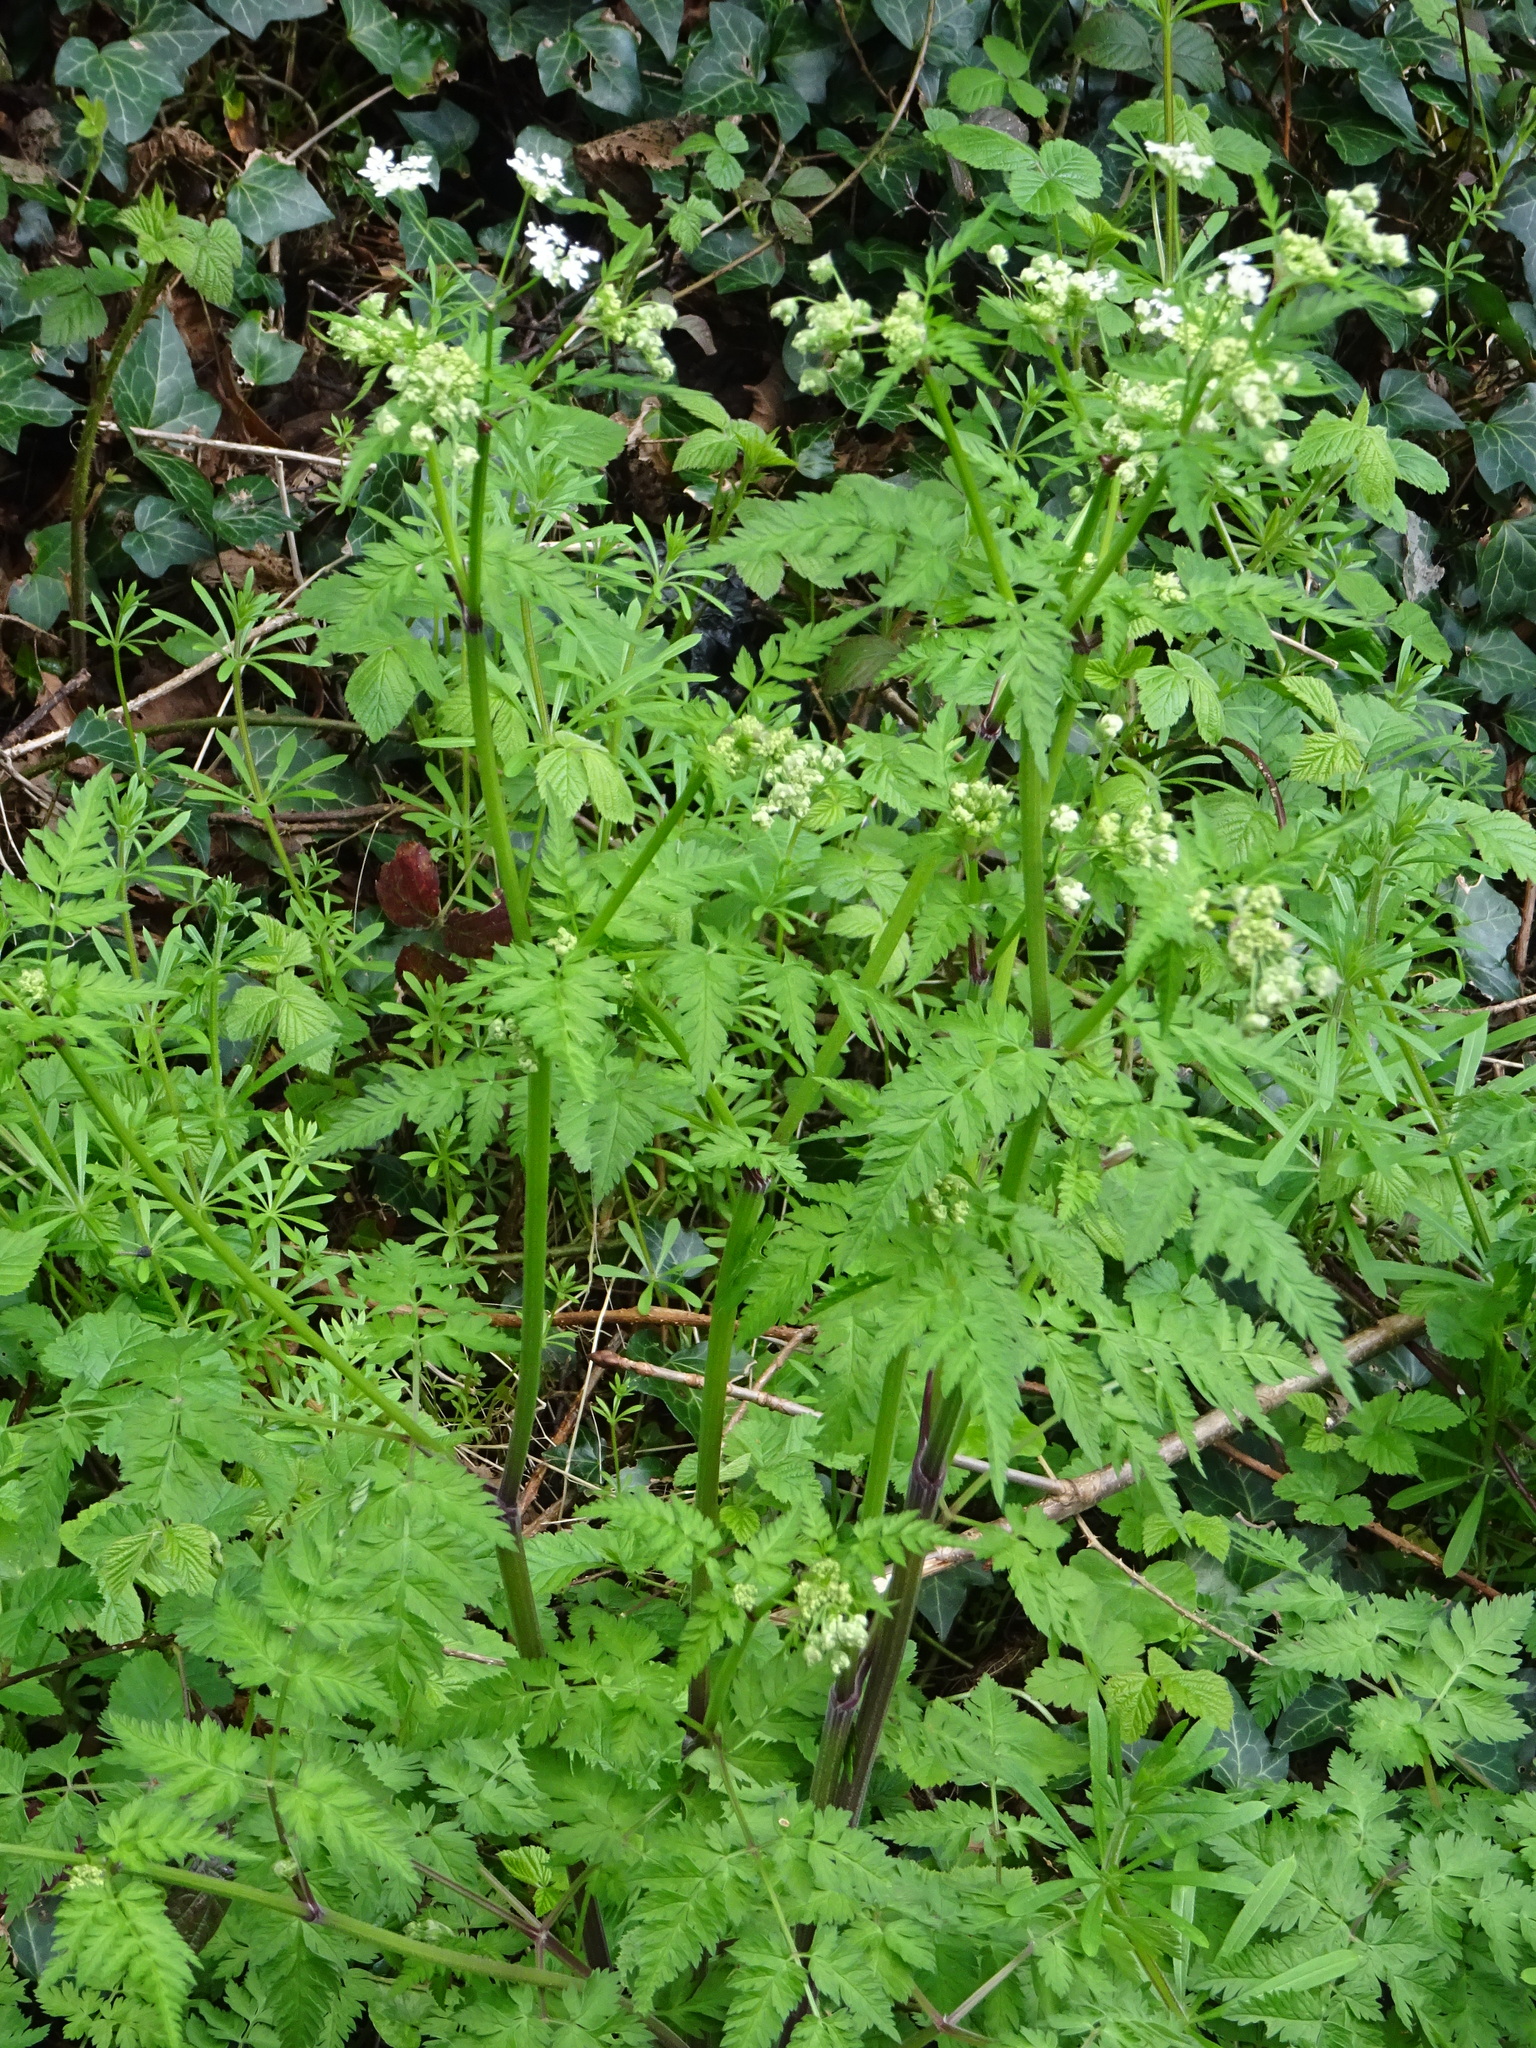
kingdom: Plantae
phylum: Tracheophyta
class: Magnoliopsida
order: Apiales
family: Apiaceae
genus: Anthriscus
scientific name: Anthriscus sylvestris
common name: Cow parsley
